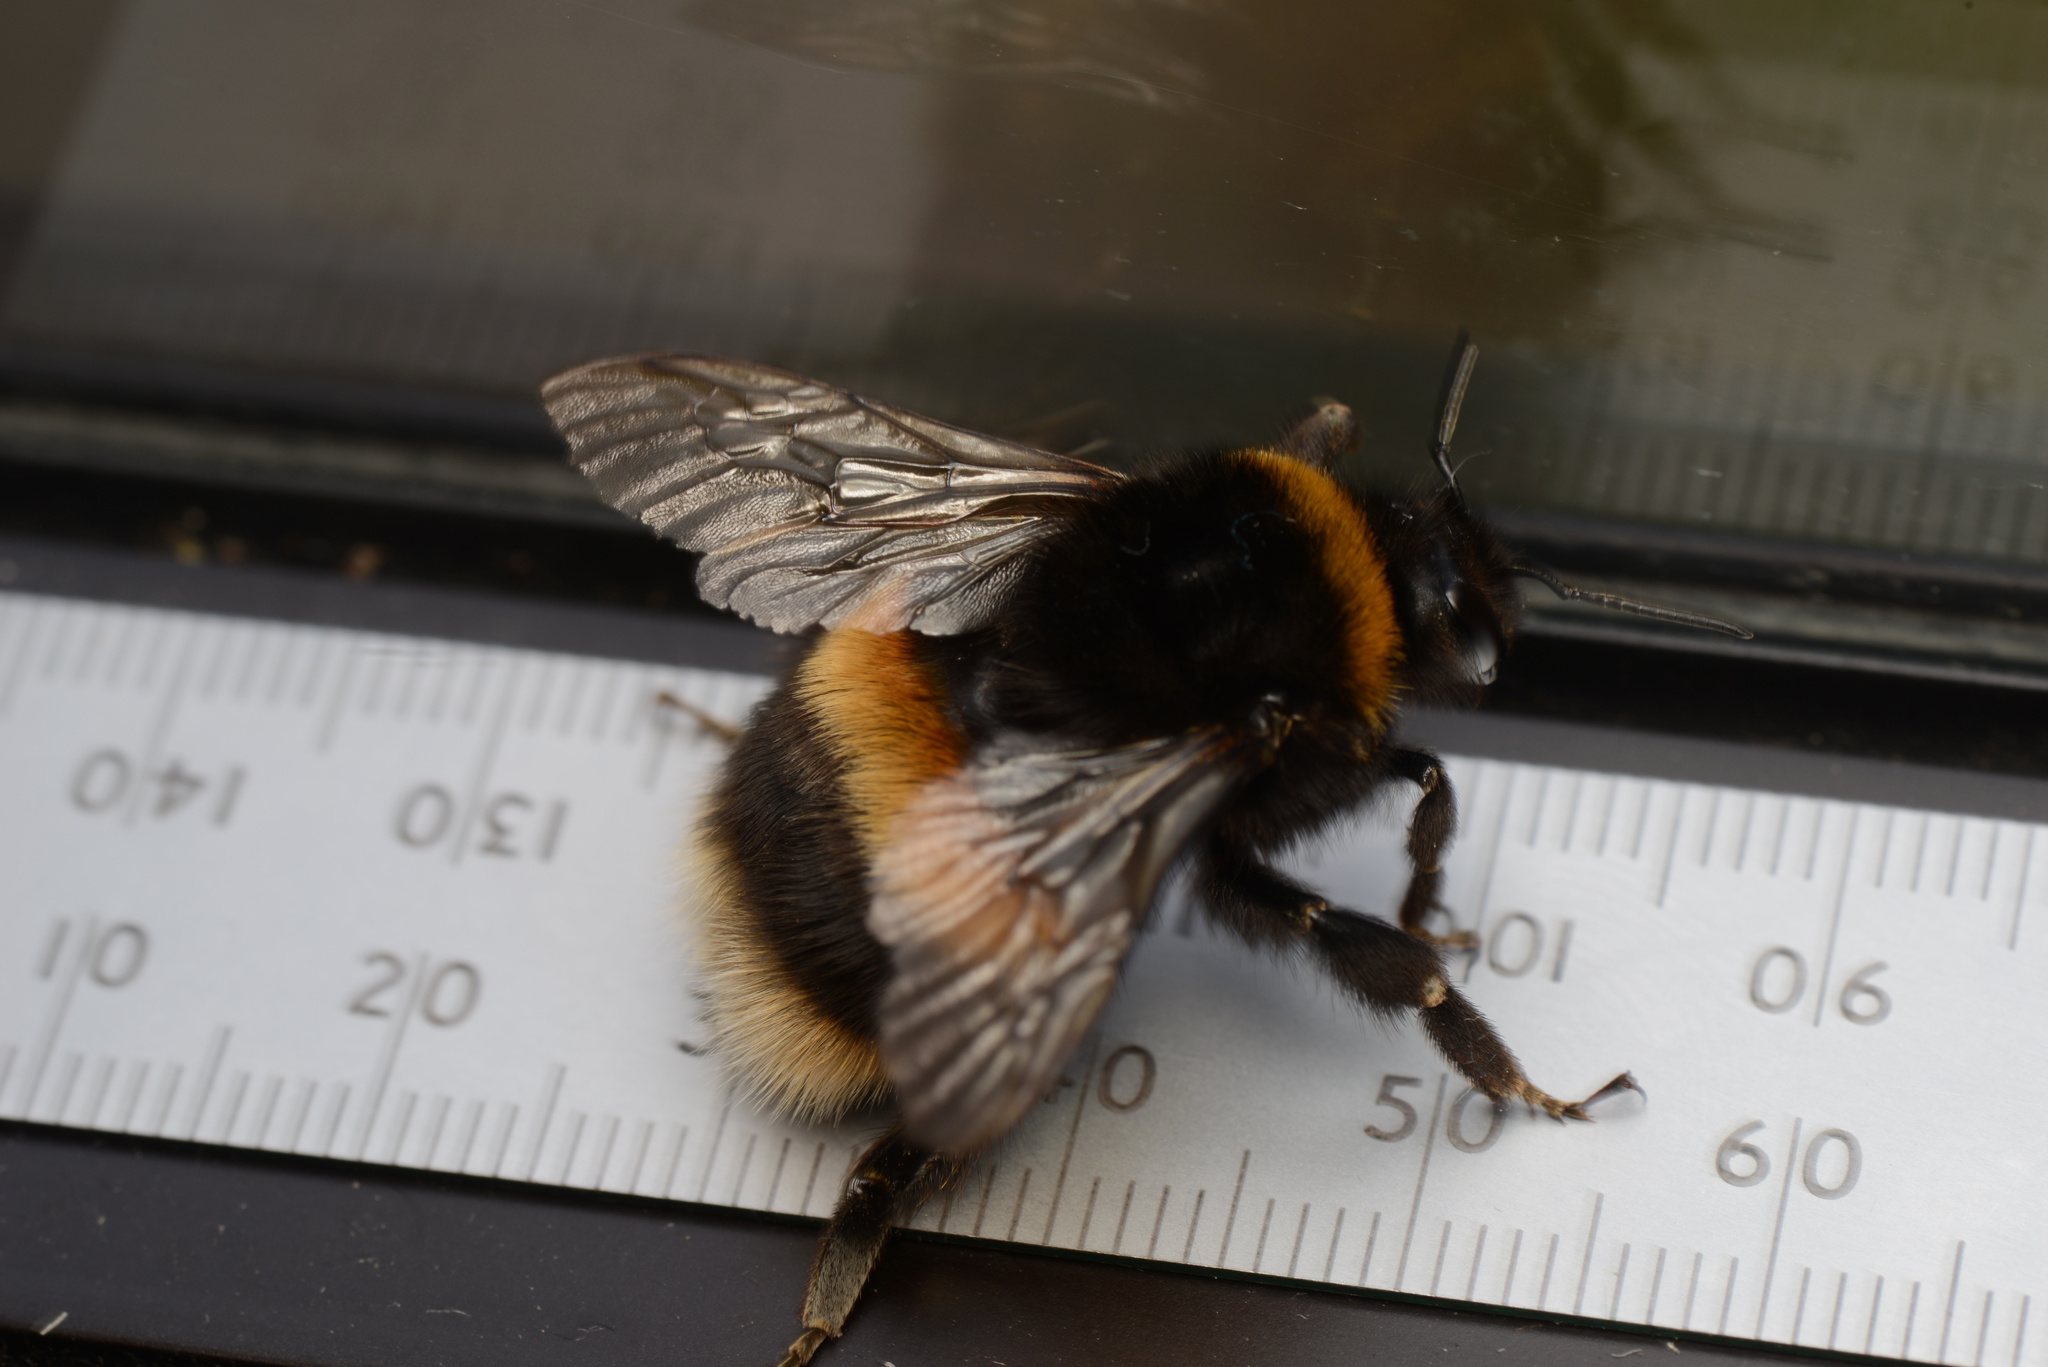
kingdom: Animalia
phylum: Arthropoda
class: Insecta
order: Hymenoptera
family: Apidae
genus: Bombus
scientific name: Bombus terrestris
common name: Buff-tailed bumblebee
